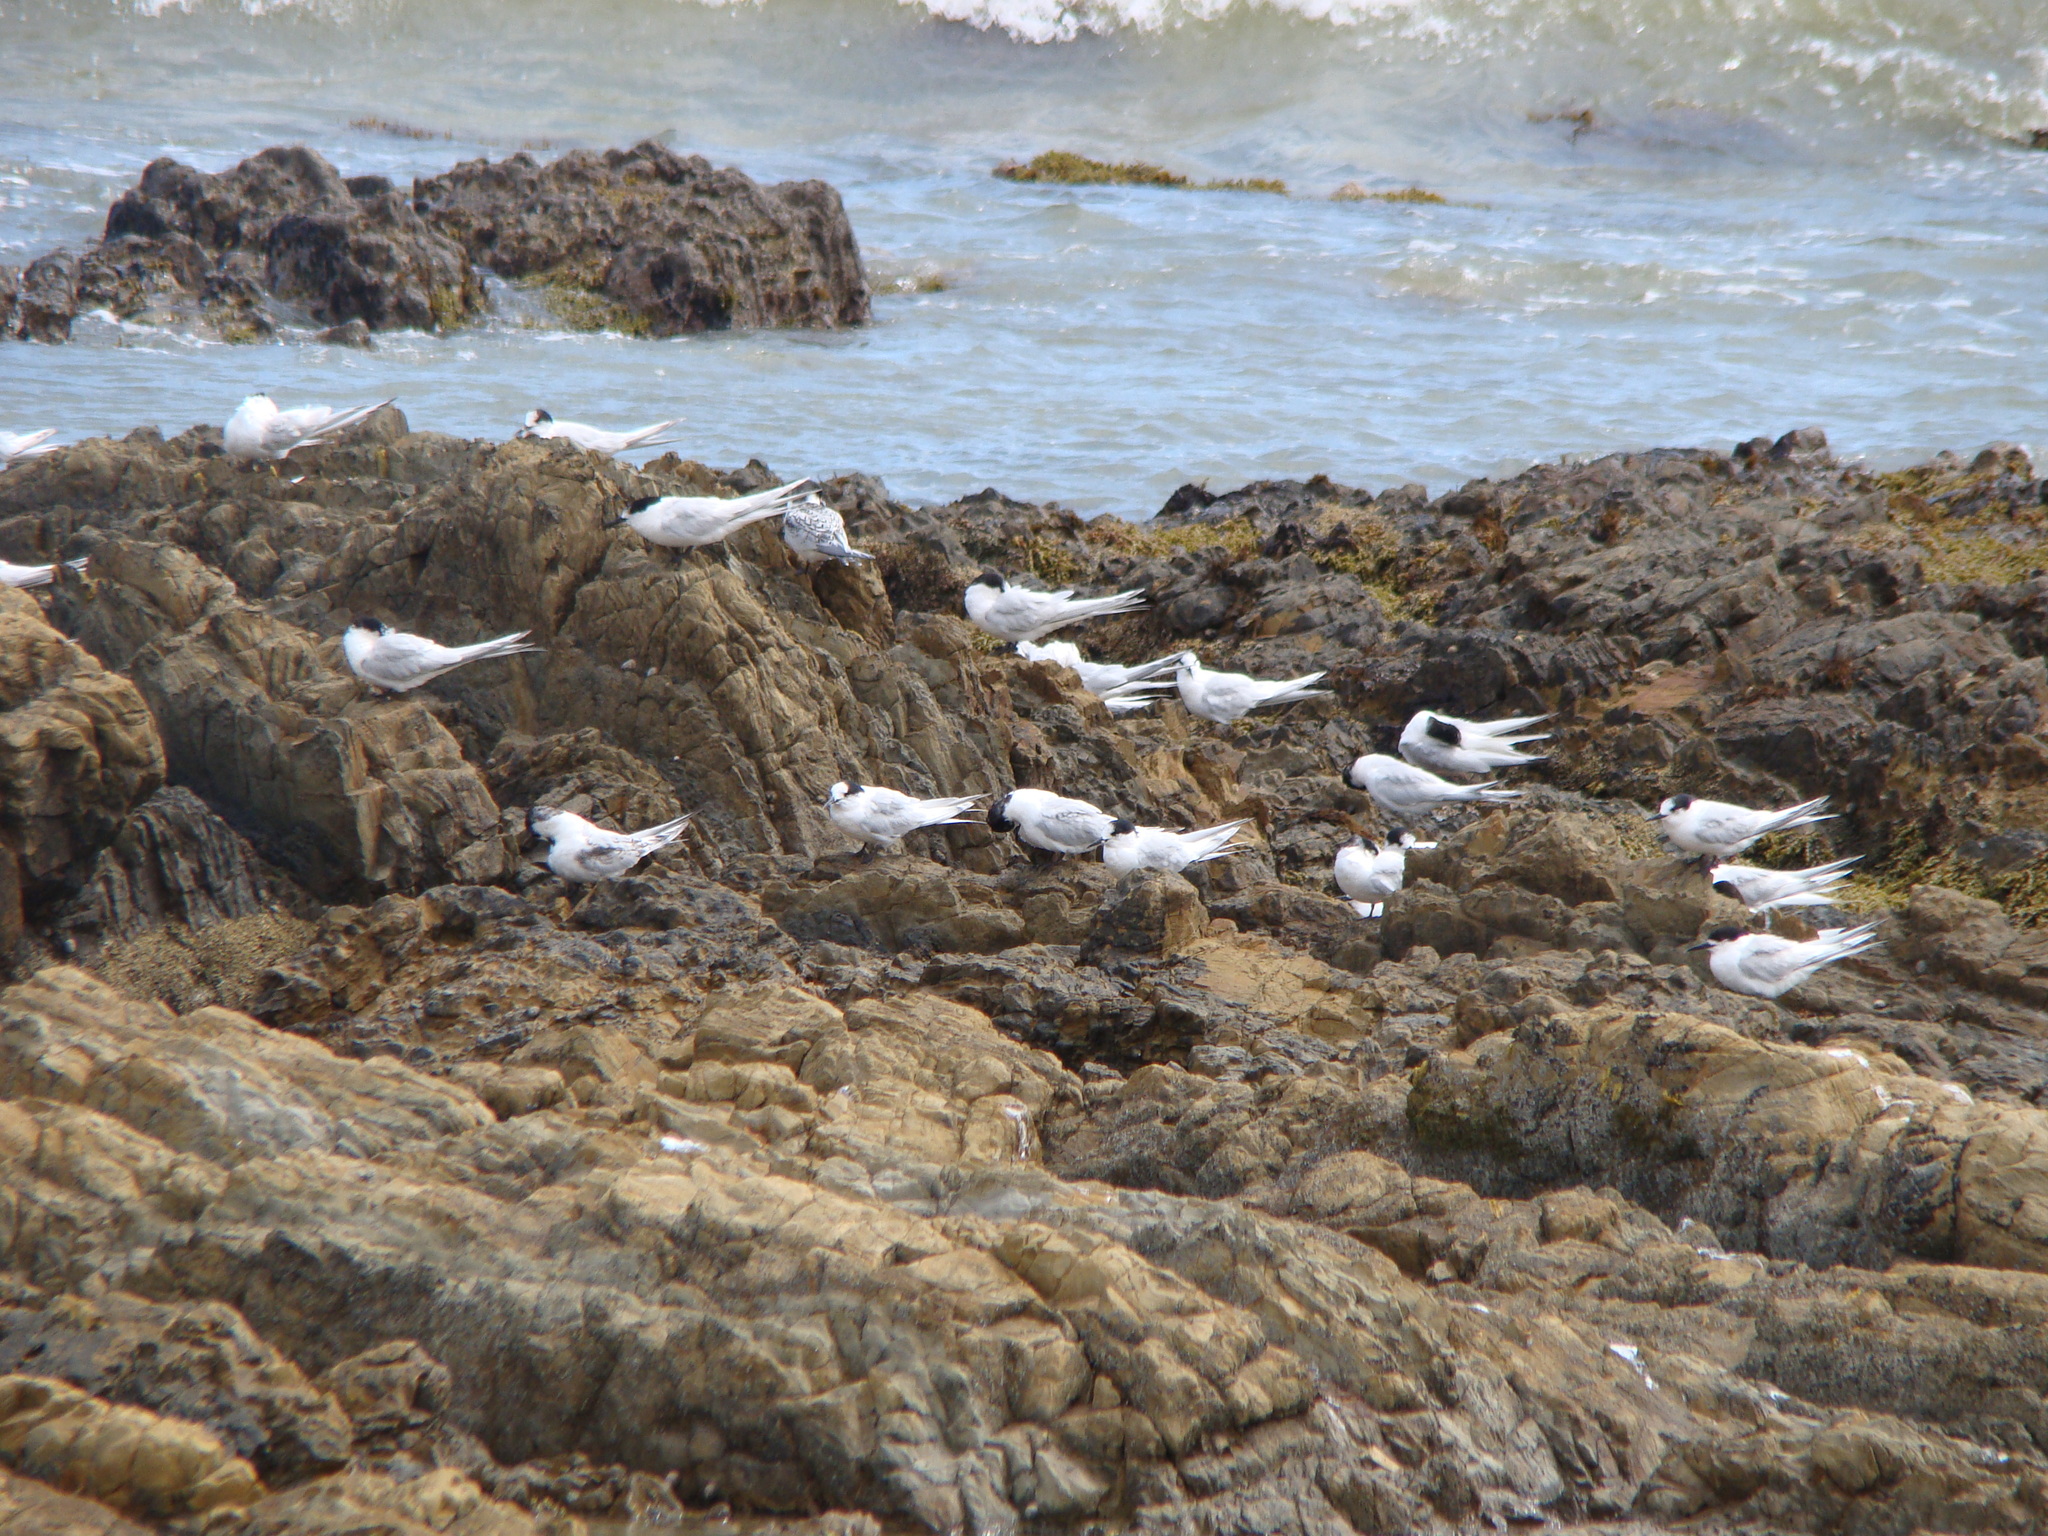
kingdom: Animalia
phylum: Chordata
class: Aves
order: Charadriiformes
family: Laridae
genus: Sterna
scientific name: Sterna striata
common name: White-fronted tern
